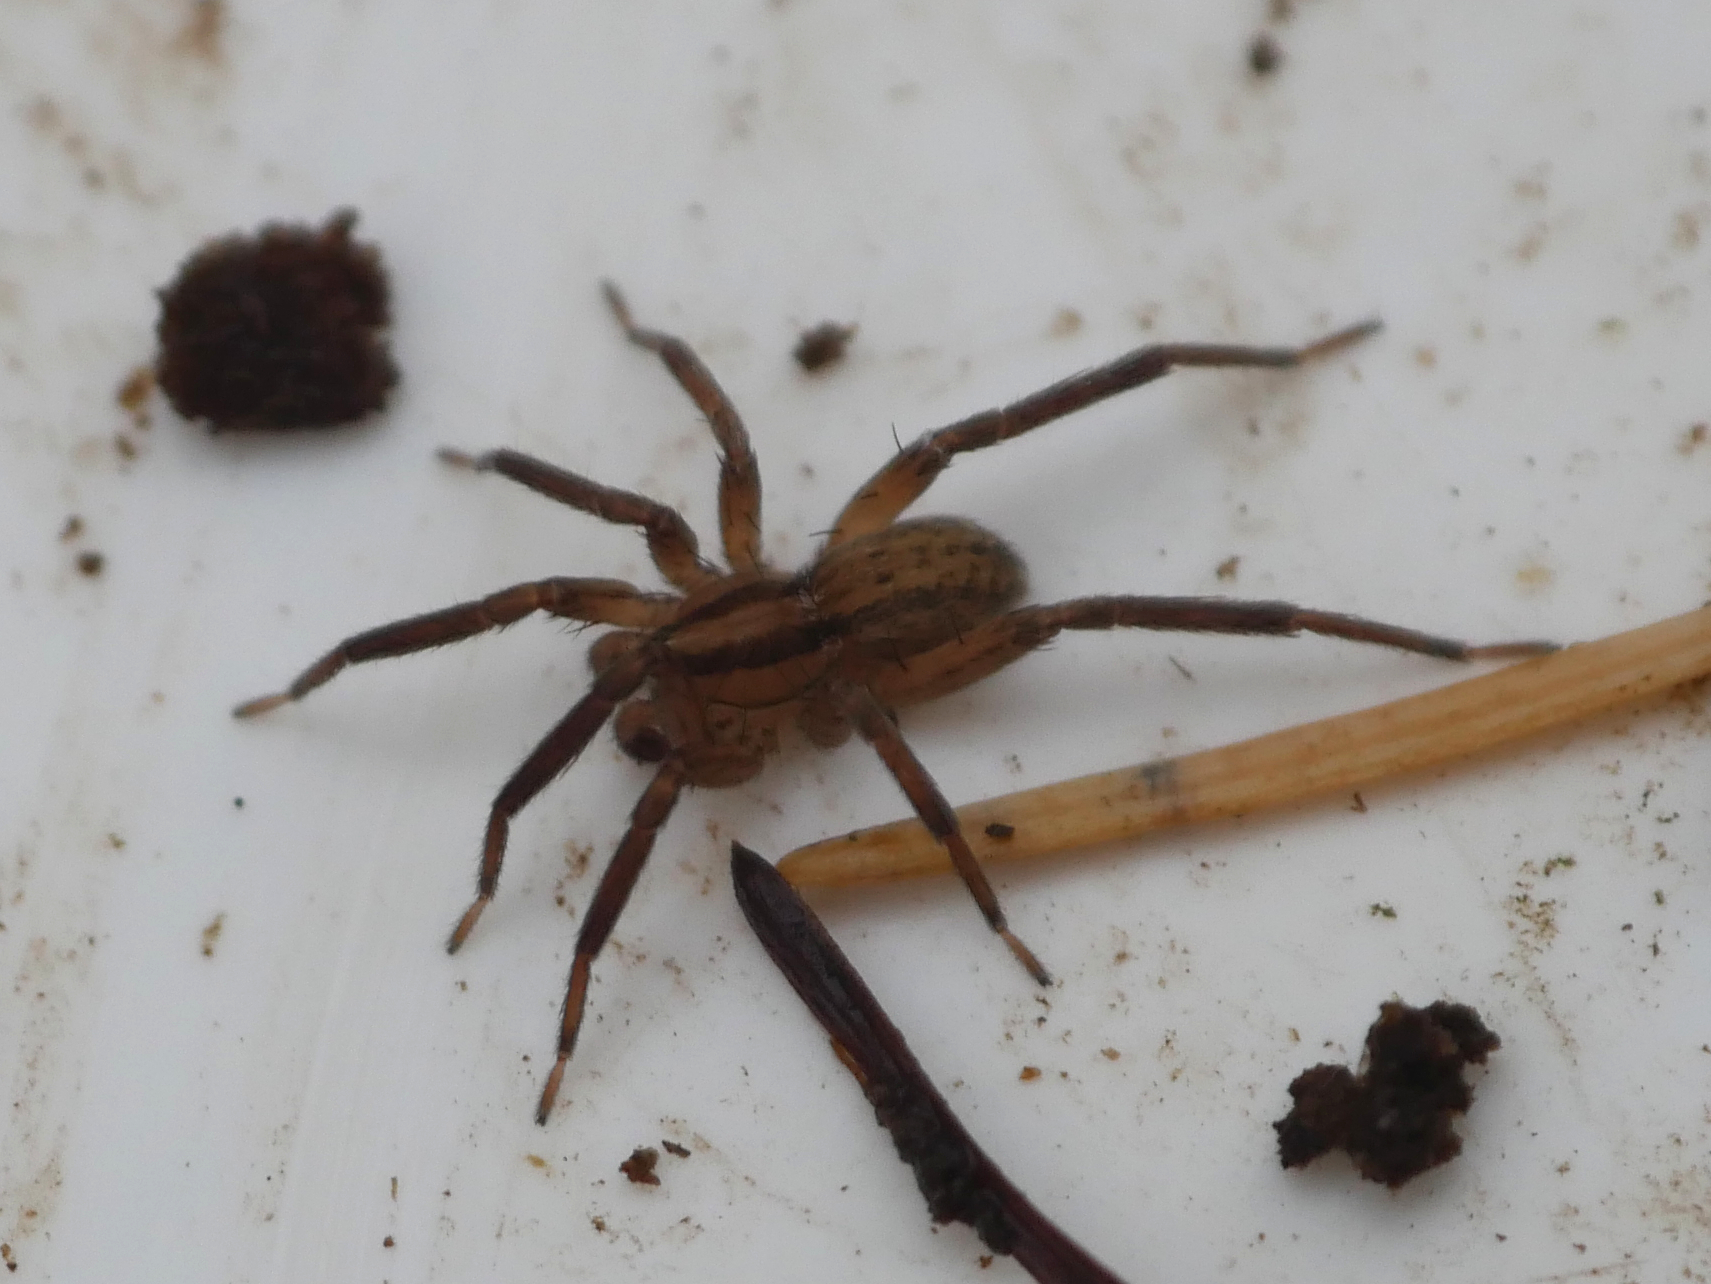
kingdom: Animalia
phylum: Arthropoda
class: Arachnida
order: Araneae
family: Miturgidae
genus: Zora
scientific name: Zora spinimana
